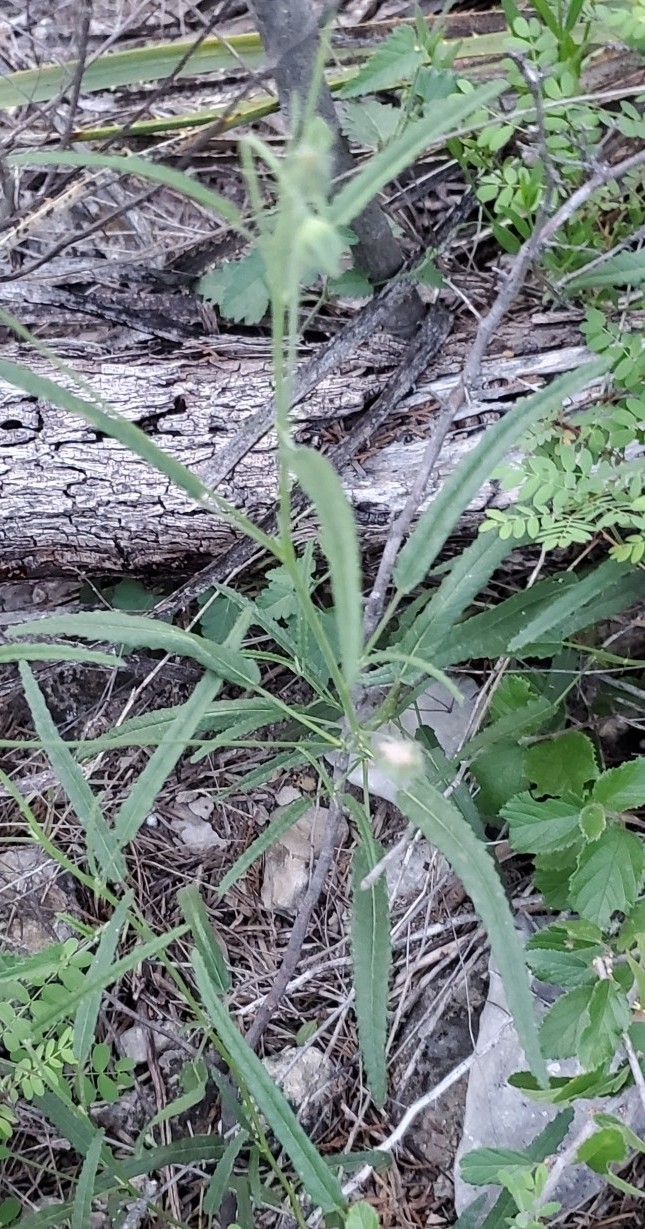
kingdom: Plantae
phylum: Tracheophyta
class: Magnoliopsida
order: Malvales
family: Malvaceae
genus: Sida
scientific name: Sida abutilifolia
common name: Spreading fanpetals
